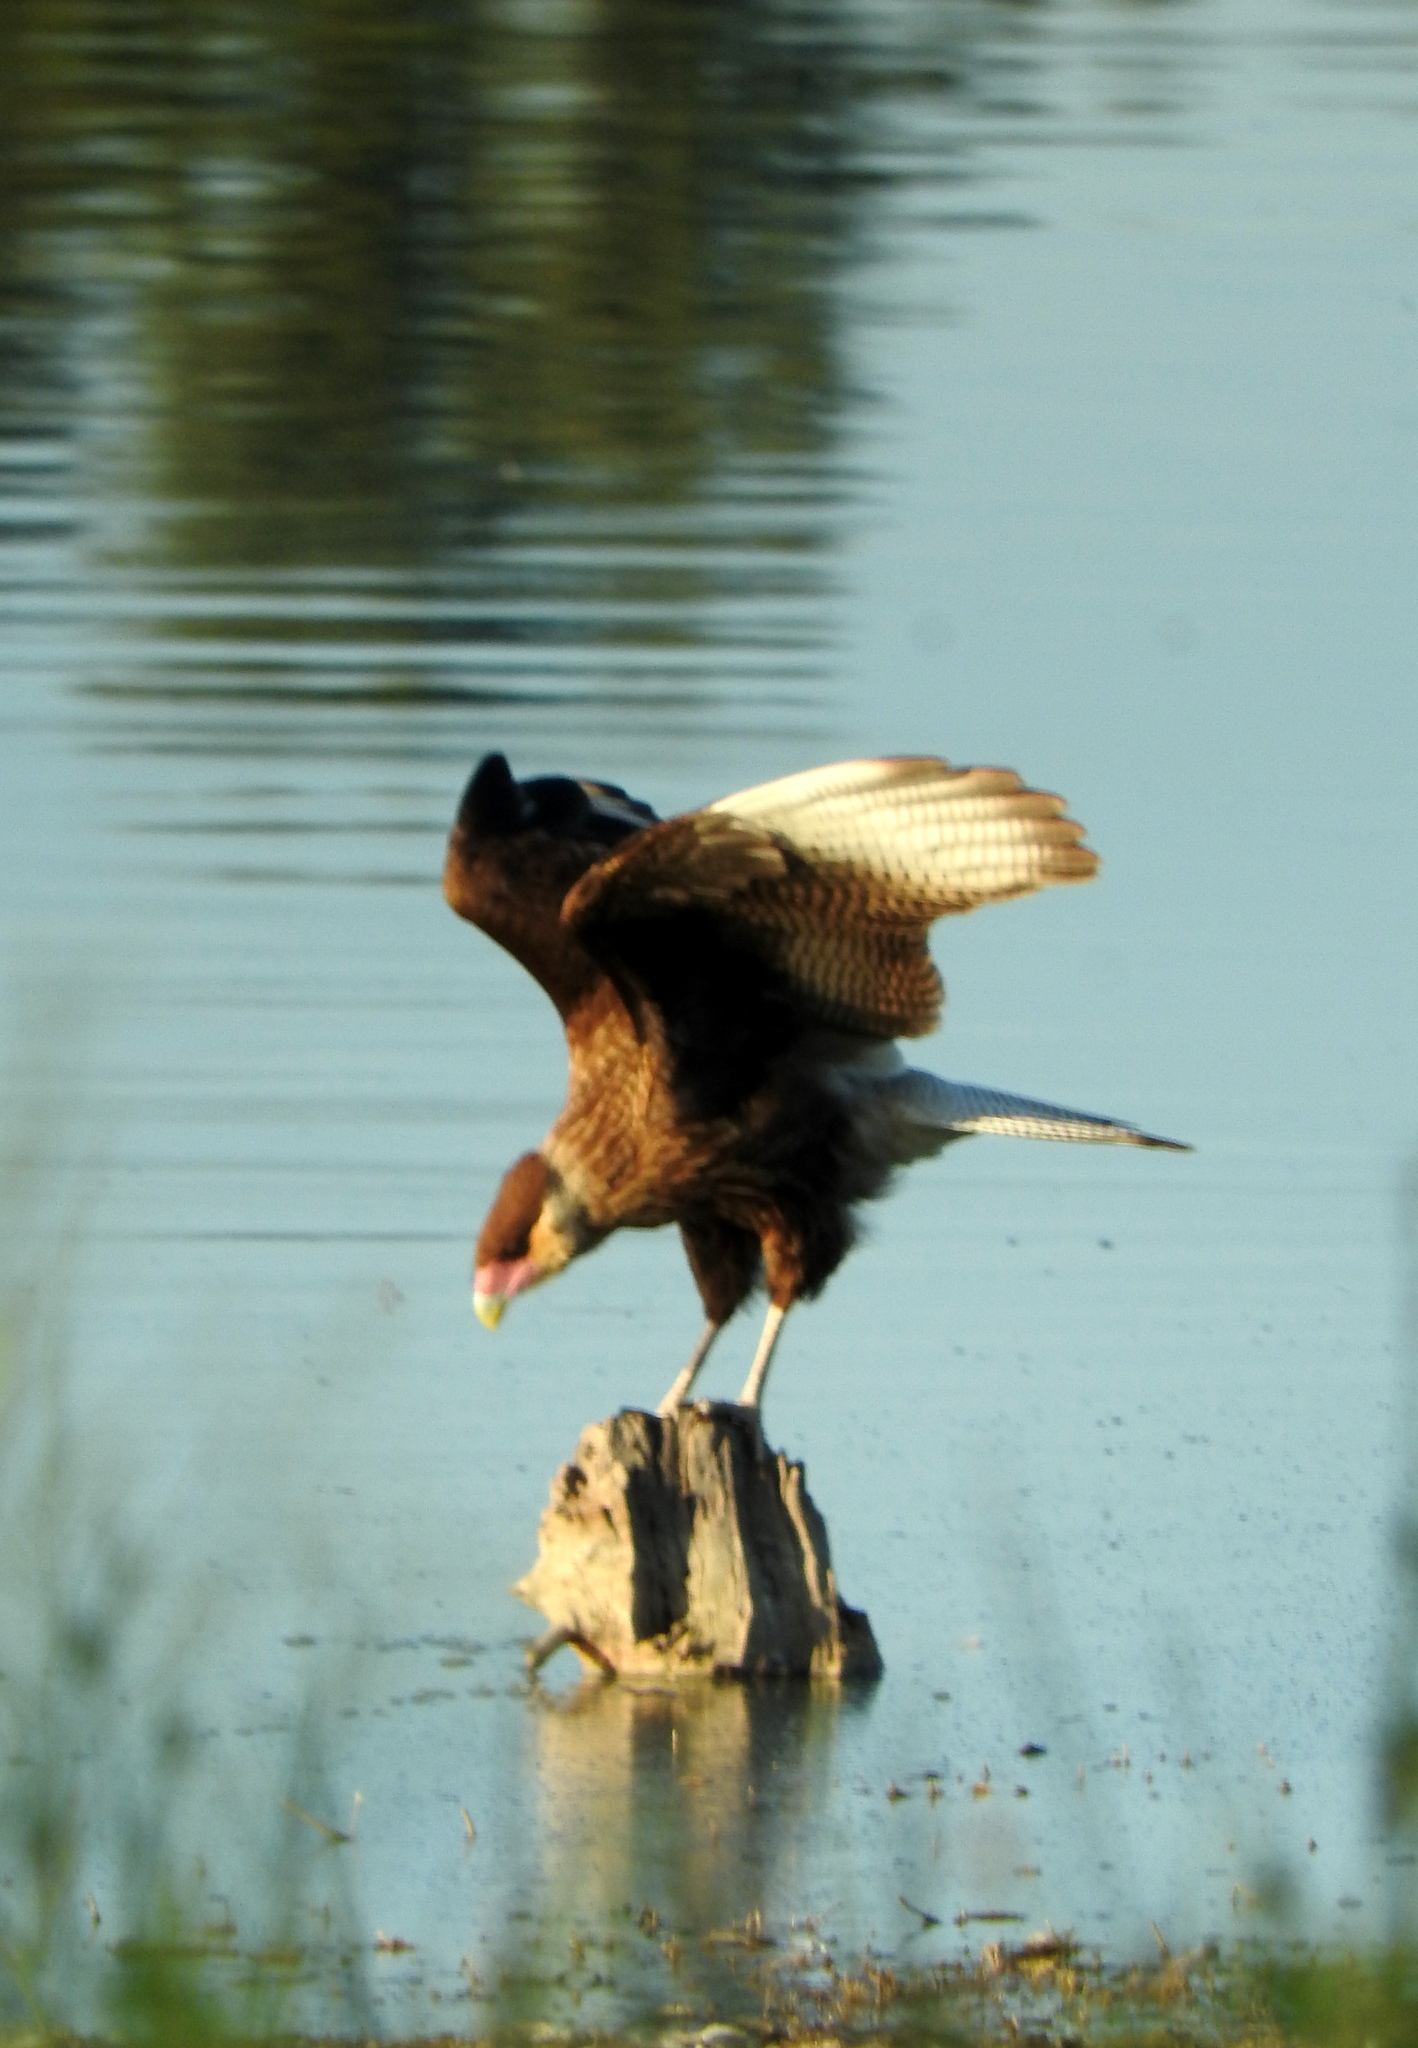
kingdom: Animalia
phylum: Chordata
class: Aves
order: Falconiformes
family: Falconidae
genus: Caracara
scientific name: Caracara plancus
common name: Southern caracara
